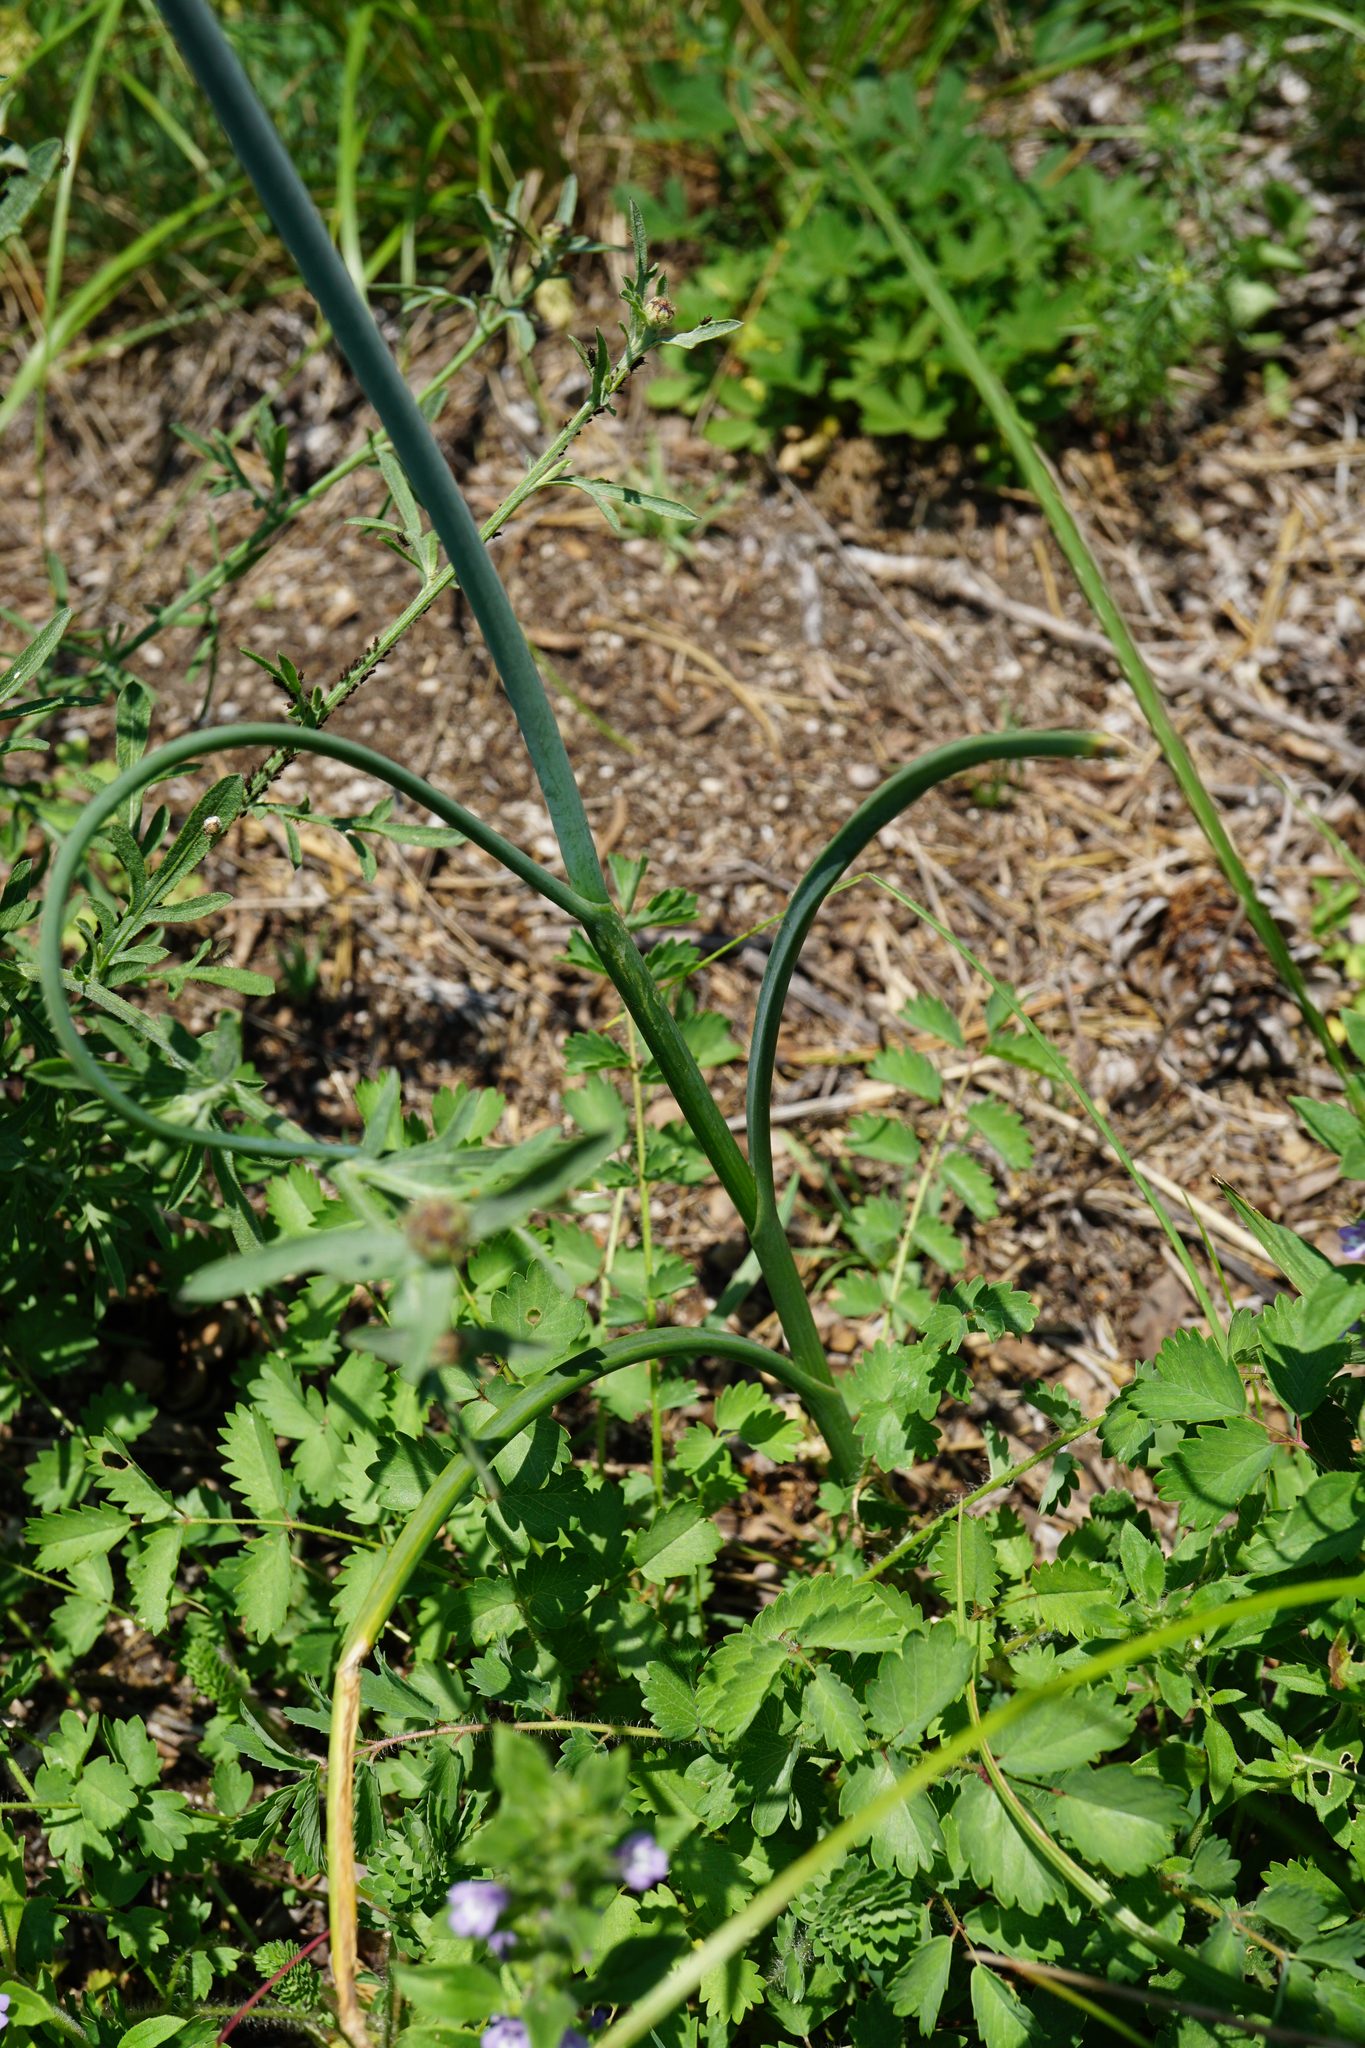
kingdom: Plantae
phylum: Tracheophyta
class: Liliopsida
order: Asparagales
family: Amaryllidaceae
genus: Allium
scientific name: Allium flavum
